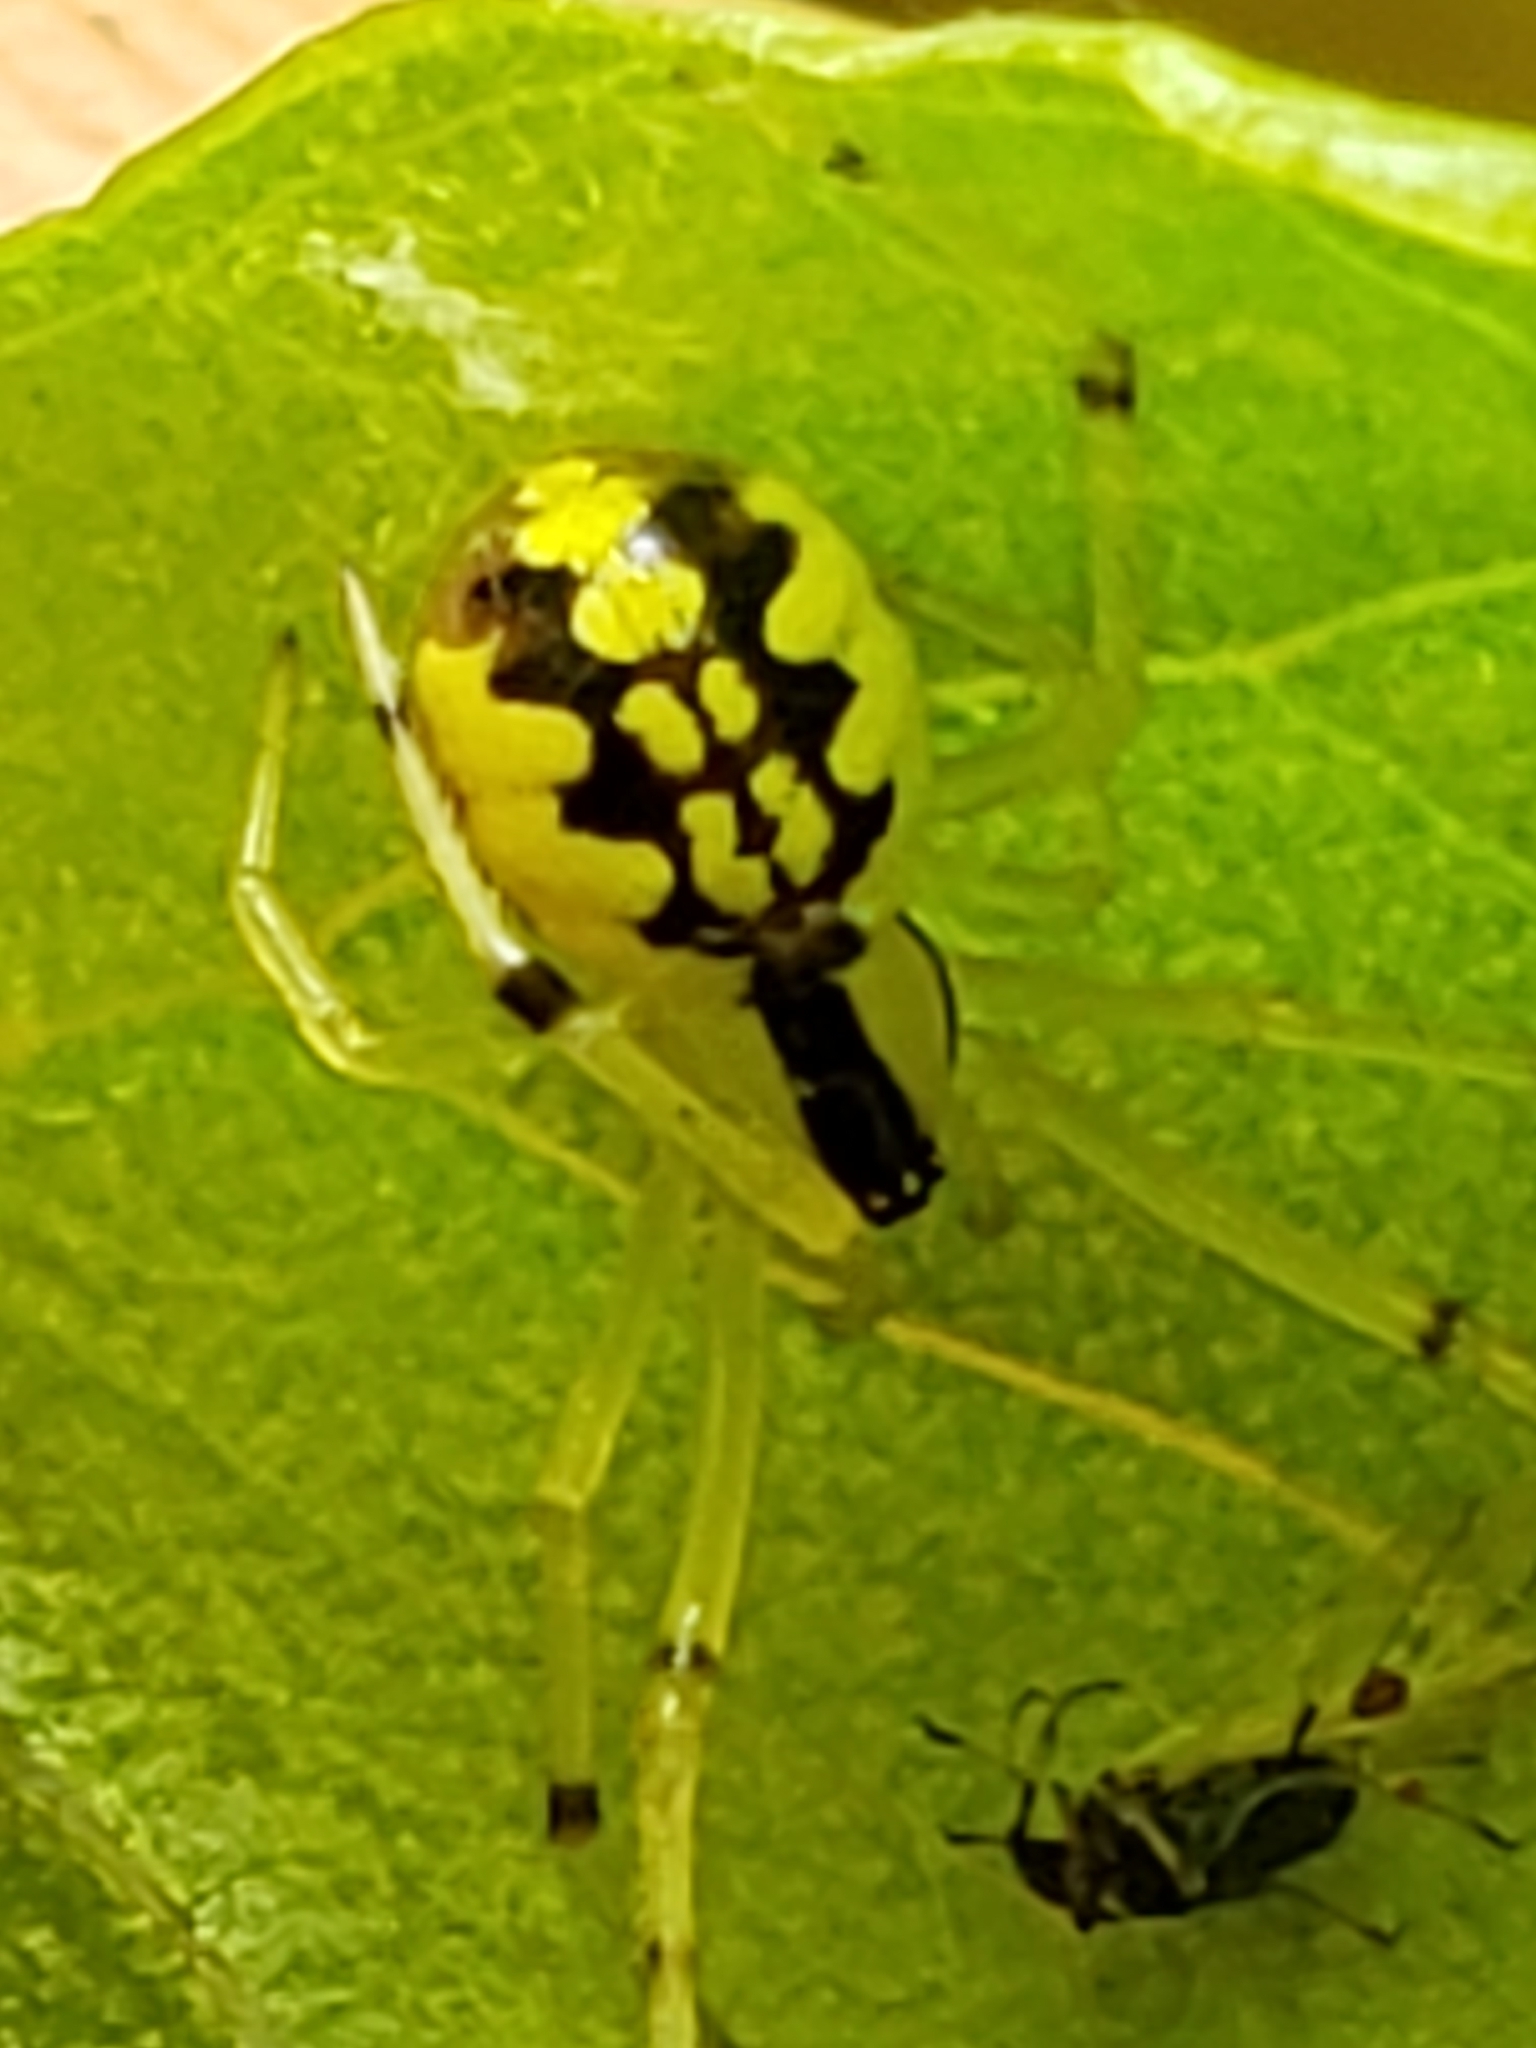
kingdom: Animalia
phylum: Arthropoda
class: Arachnida
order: Araneae
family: Theridiidae
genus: Phylloneta
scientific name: Phylloneta pictipes
